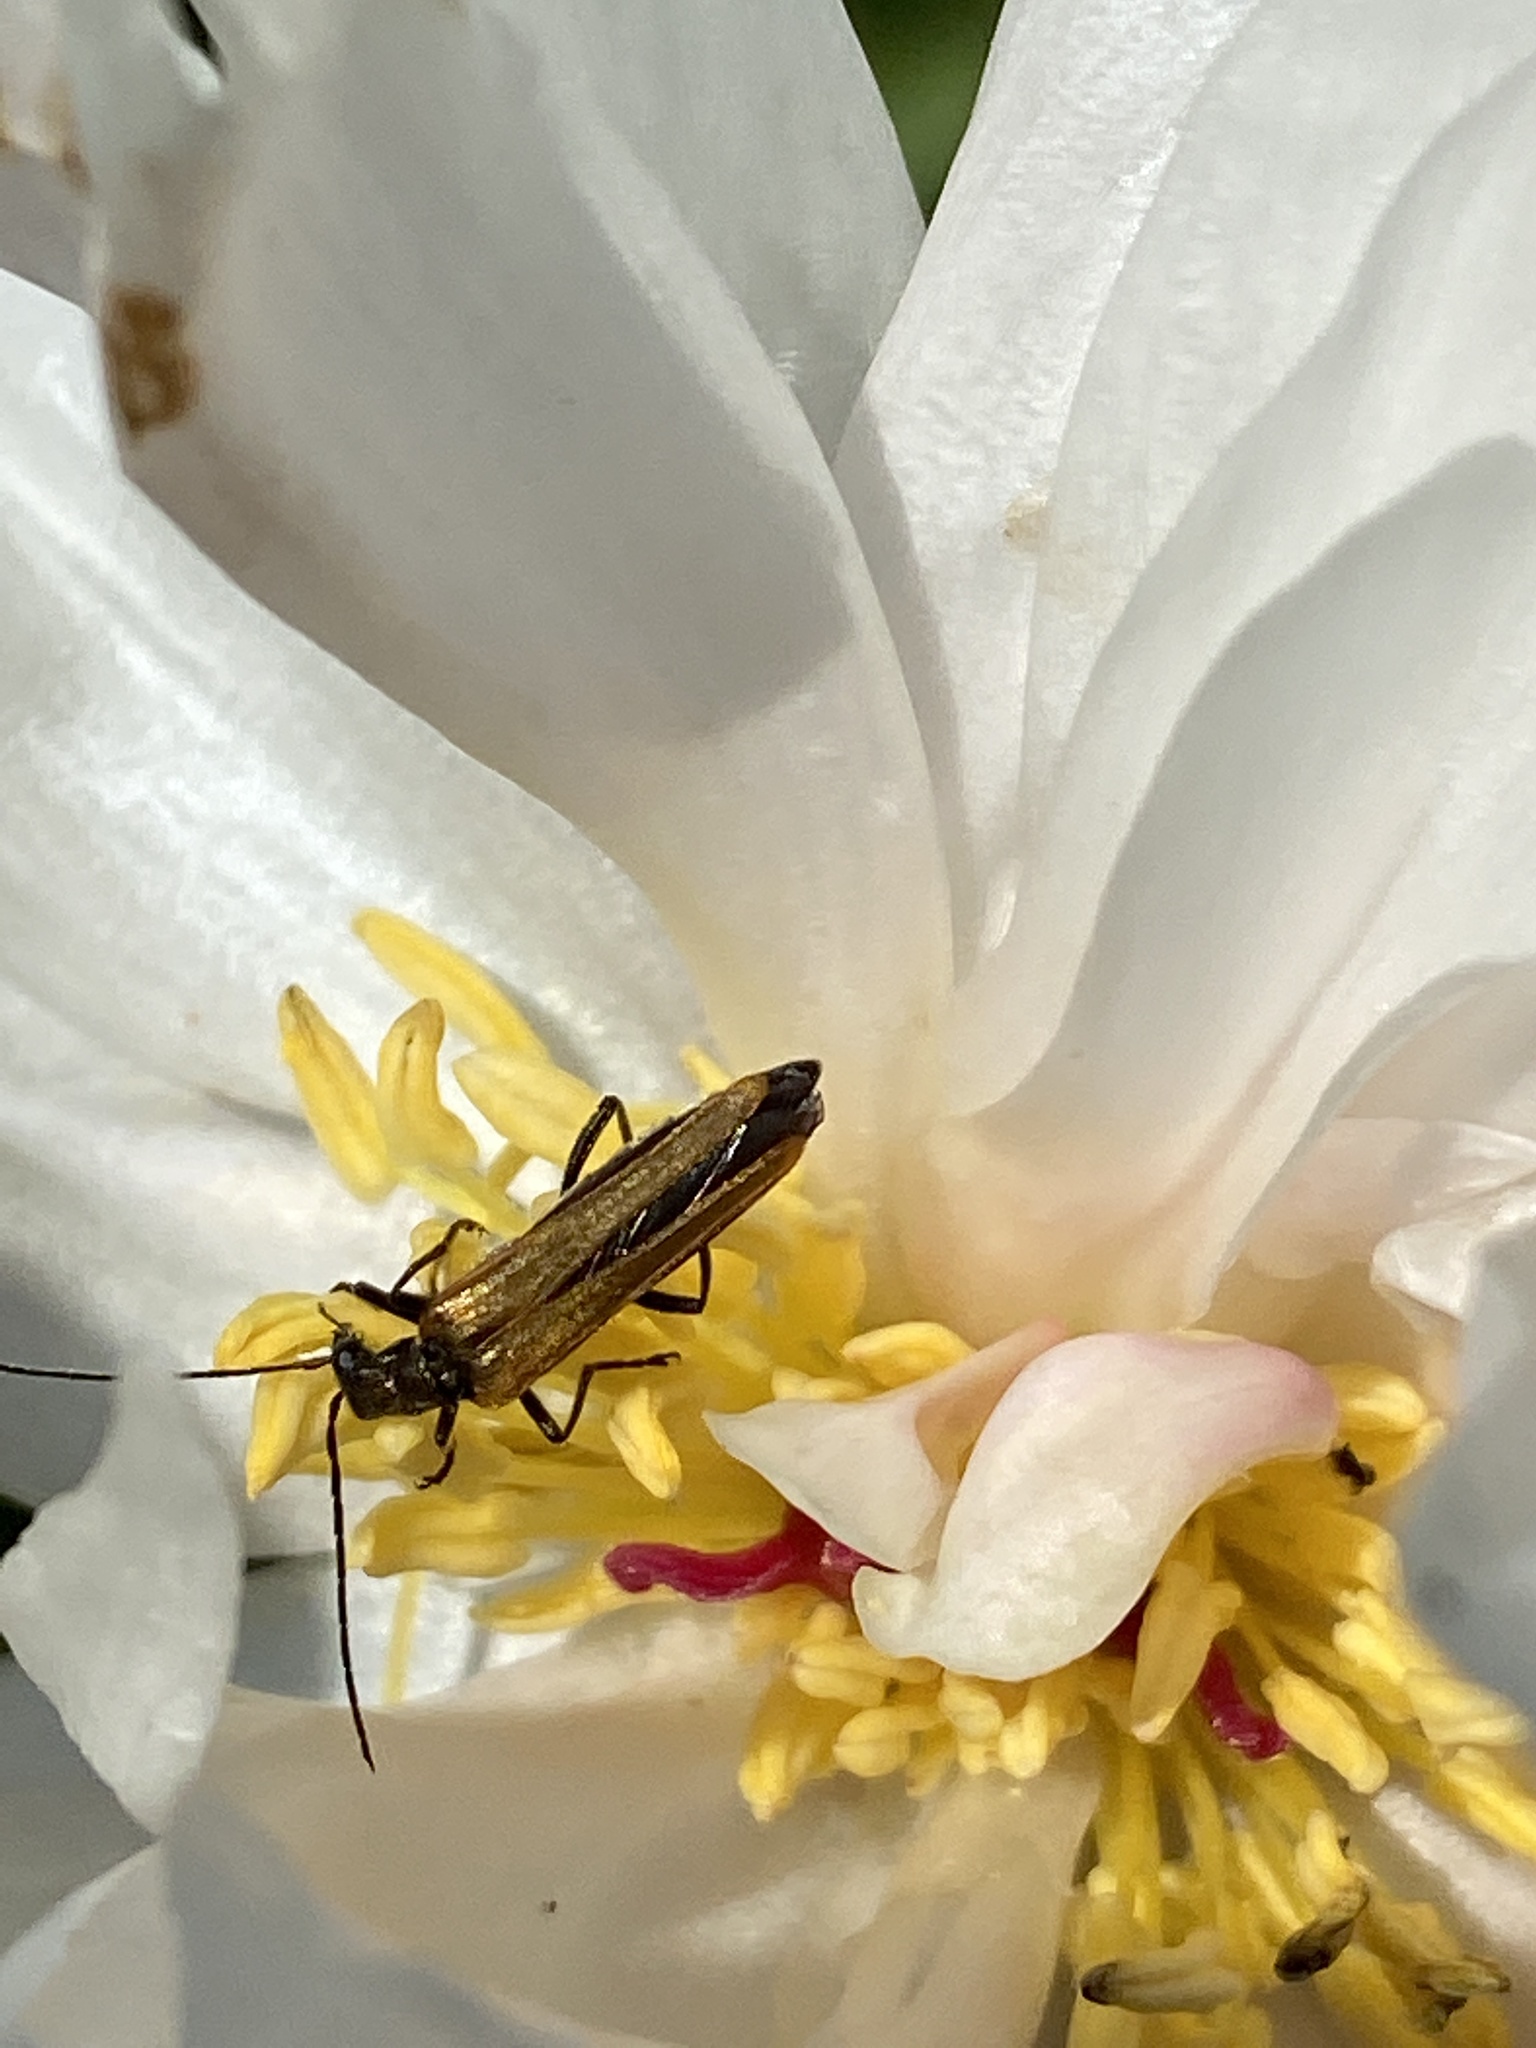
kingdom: Animalia
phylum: Arthropoda
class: Insecta
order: Coleoptera
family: Oedemeridae
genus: Oedemera
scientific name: Oedemera femorata
